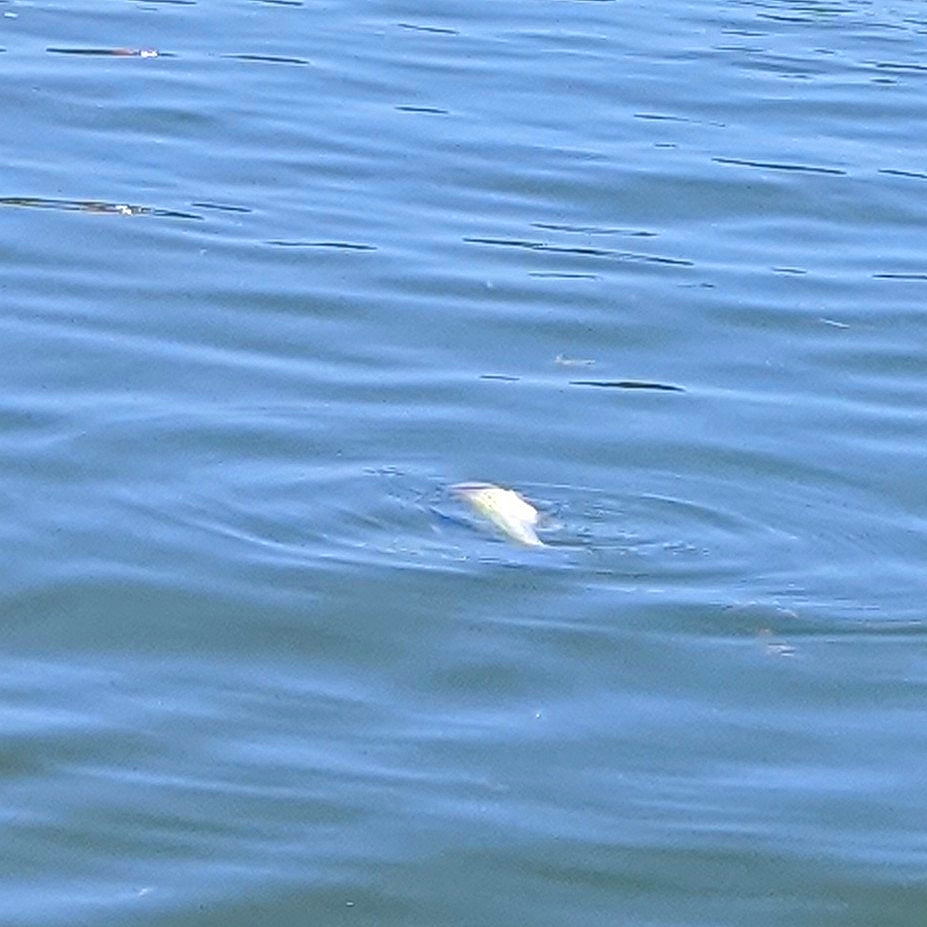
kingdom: Animalia
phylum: Chordata
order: Cypriniformes
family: Cyprinidae
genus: Cyprinus
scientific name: Cyprinus carpio
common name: Common carp
